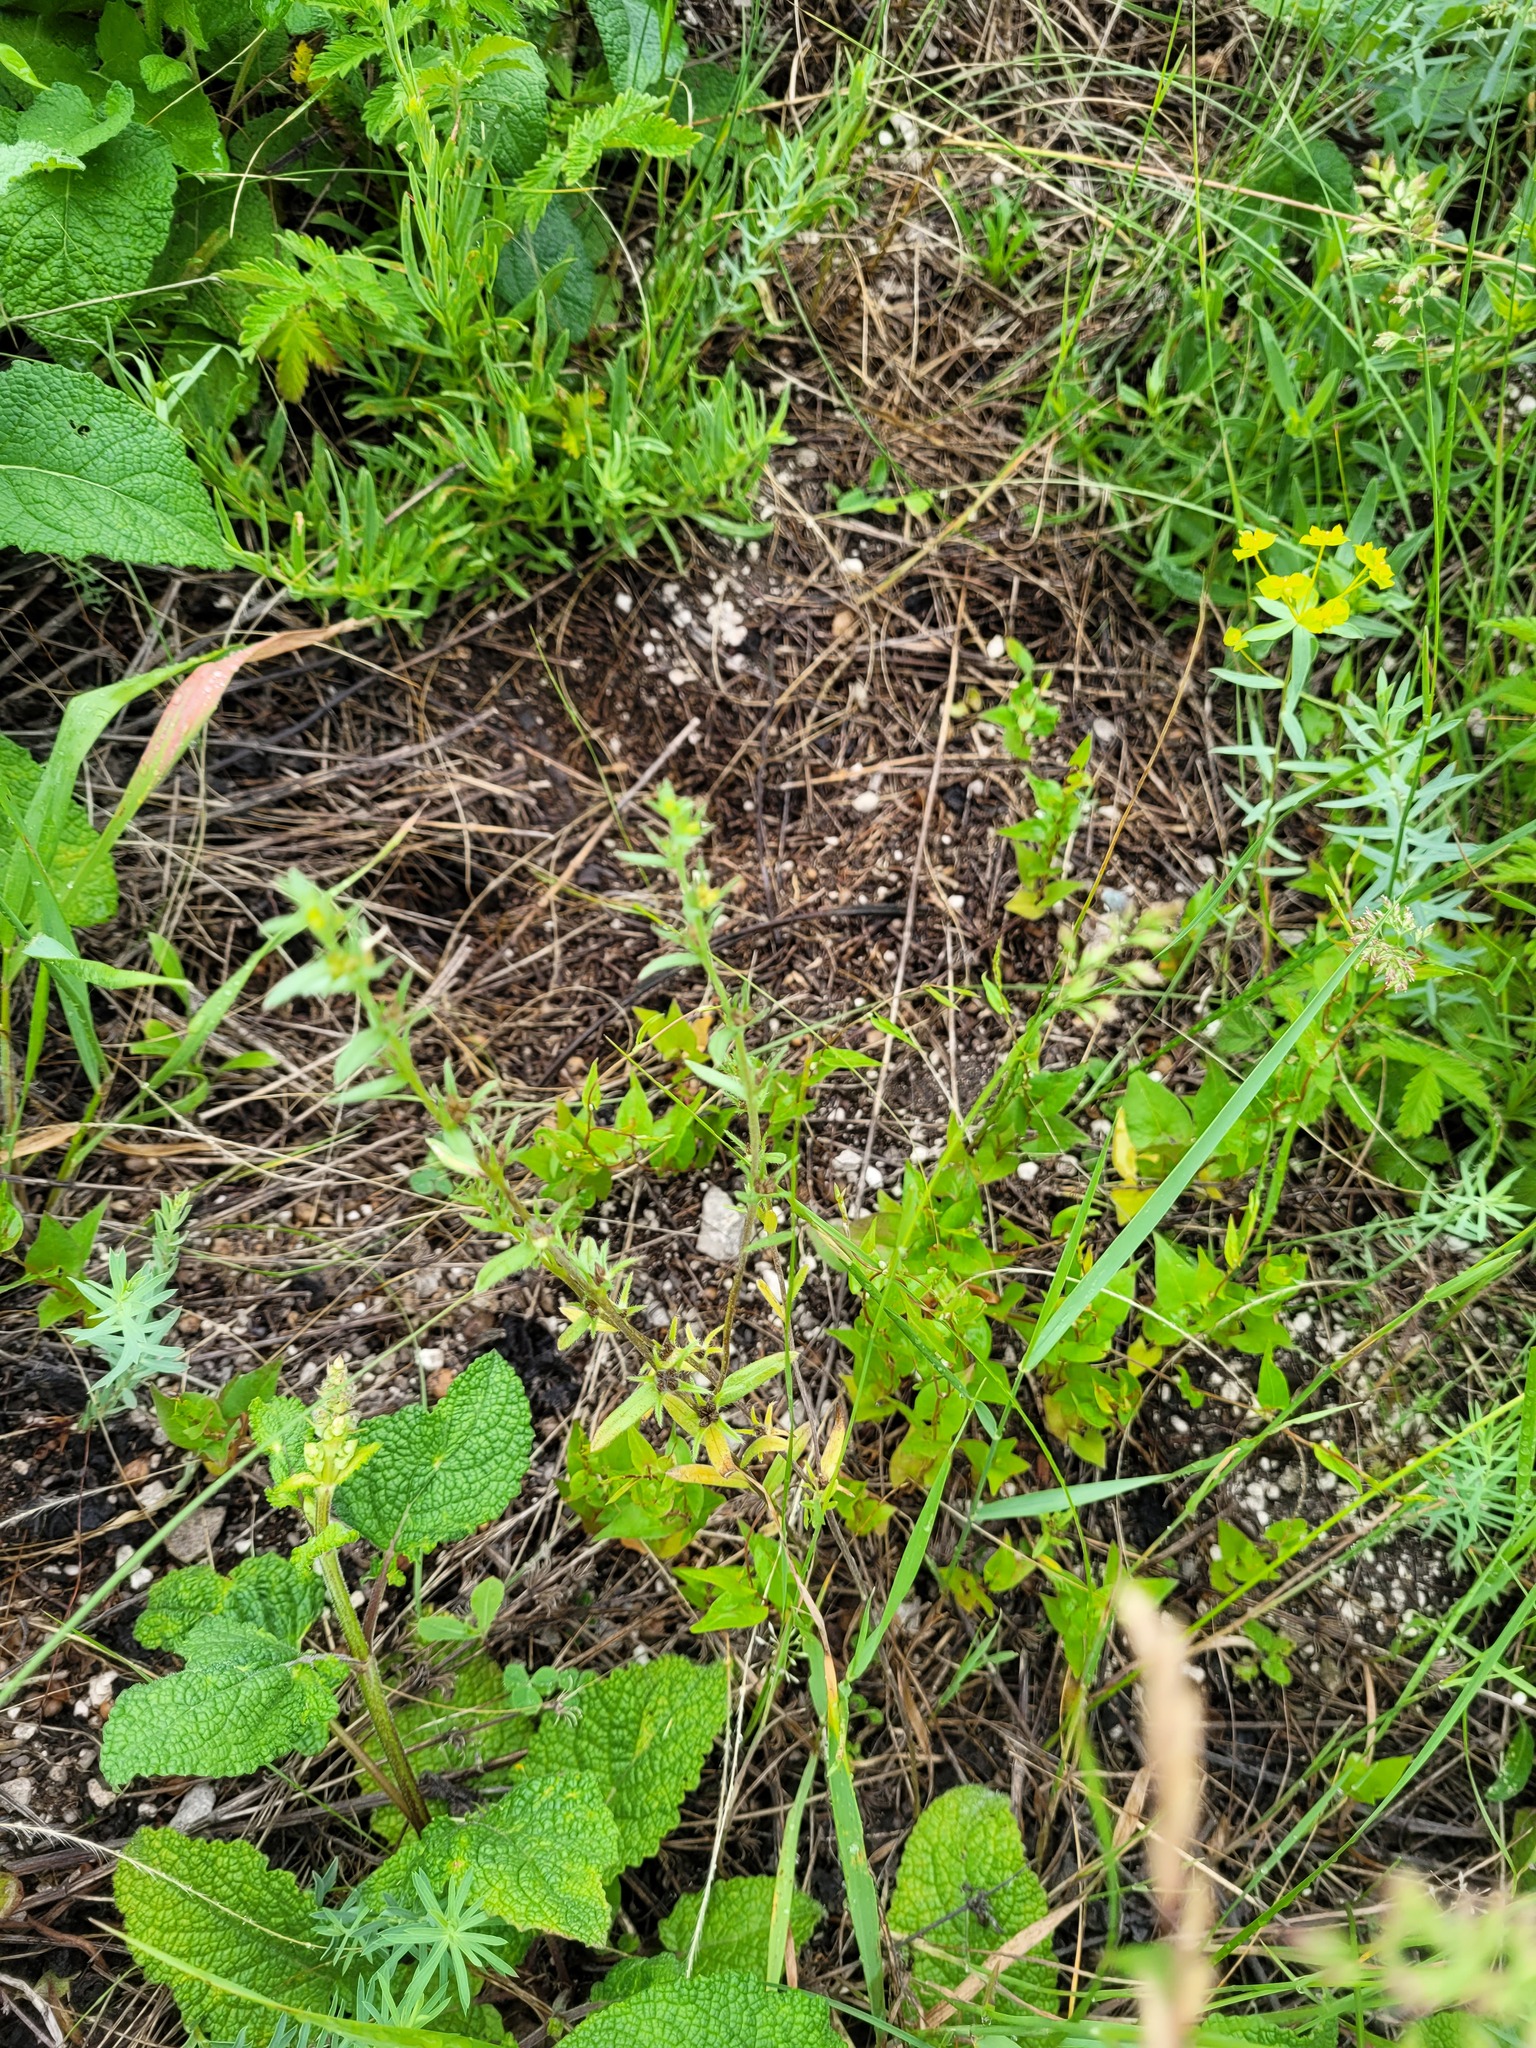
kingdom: Plantae
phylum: Tracheophyta
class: Magnoliopsida
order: Boraginales
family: Boraginaceae
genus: Buglossoides
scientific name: Buglossoides arvensis
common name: Corn gromwell
